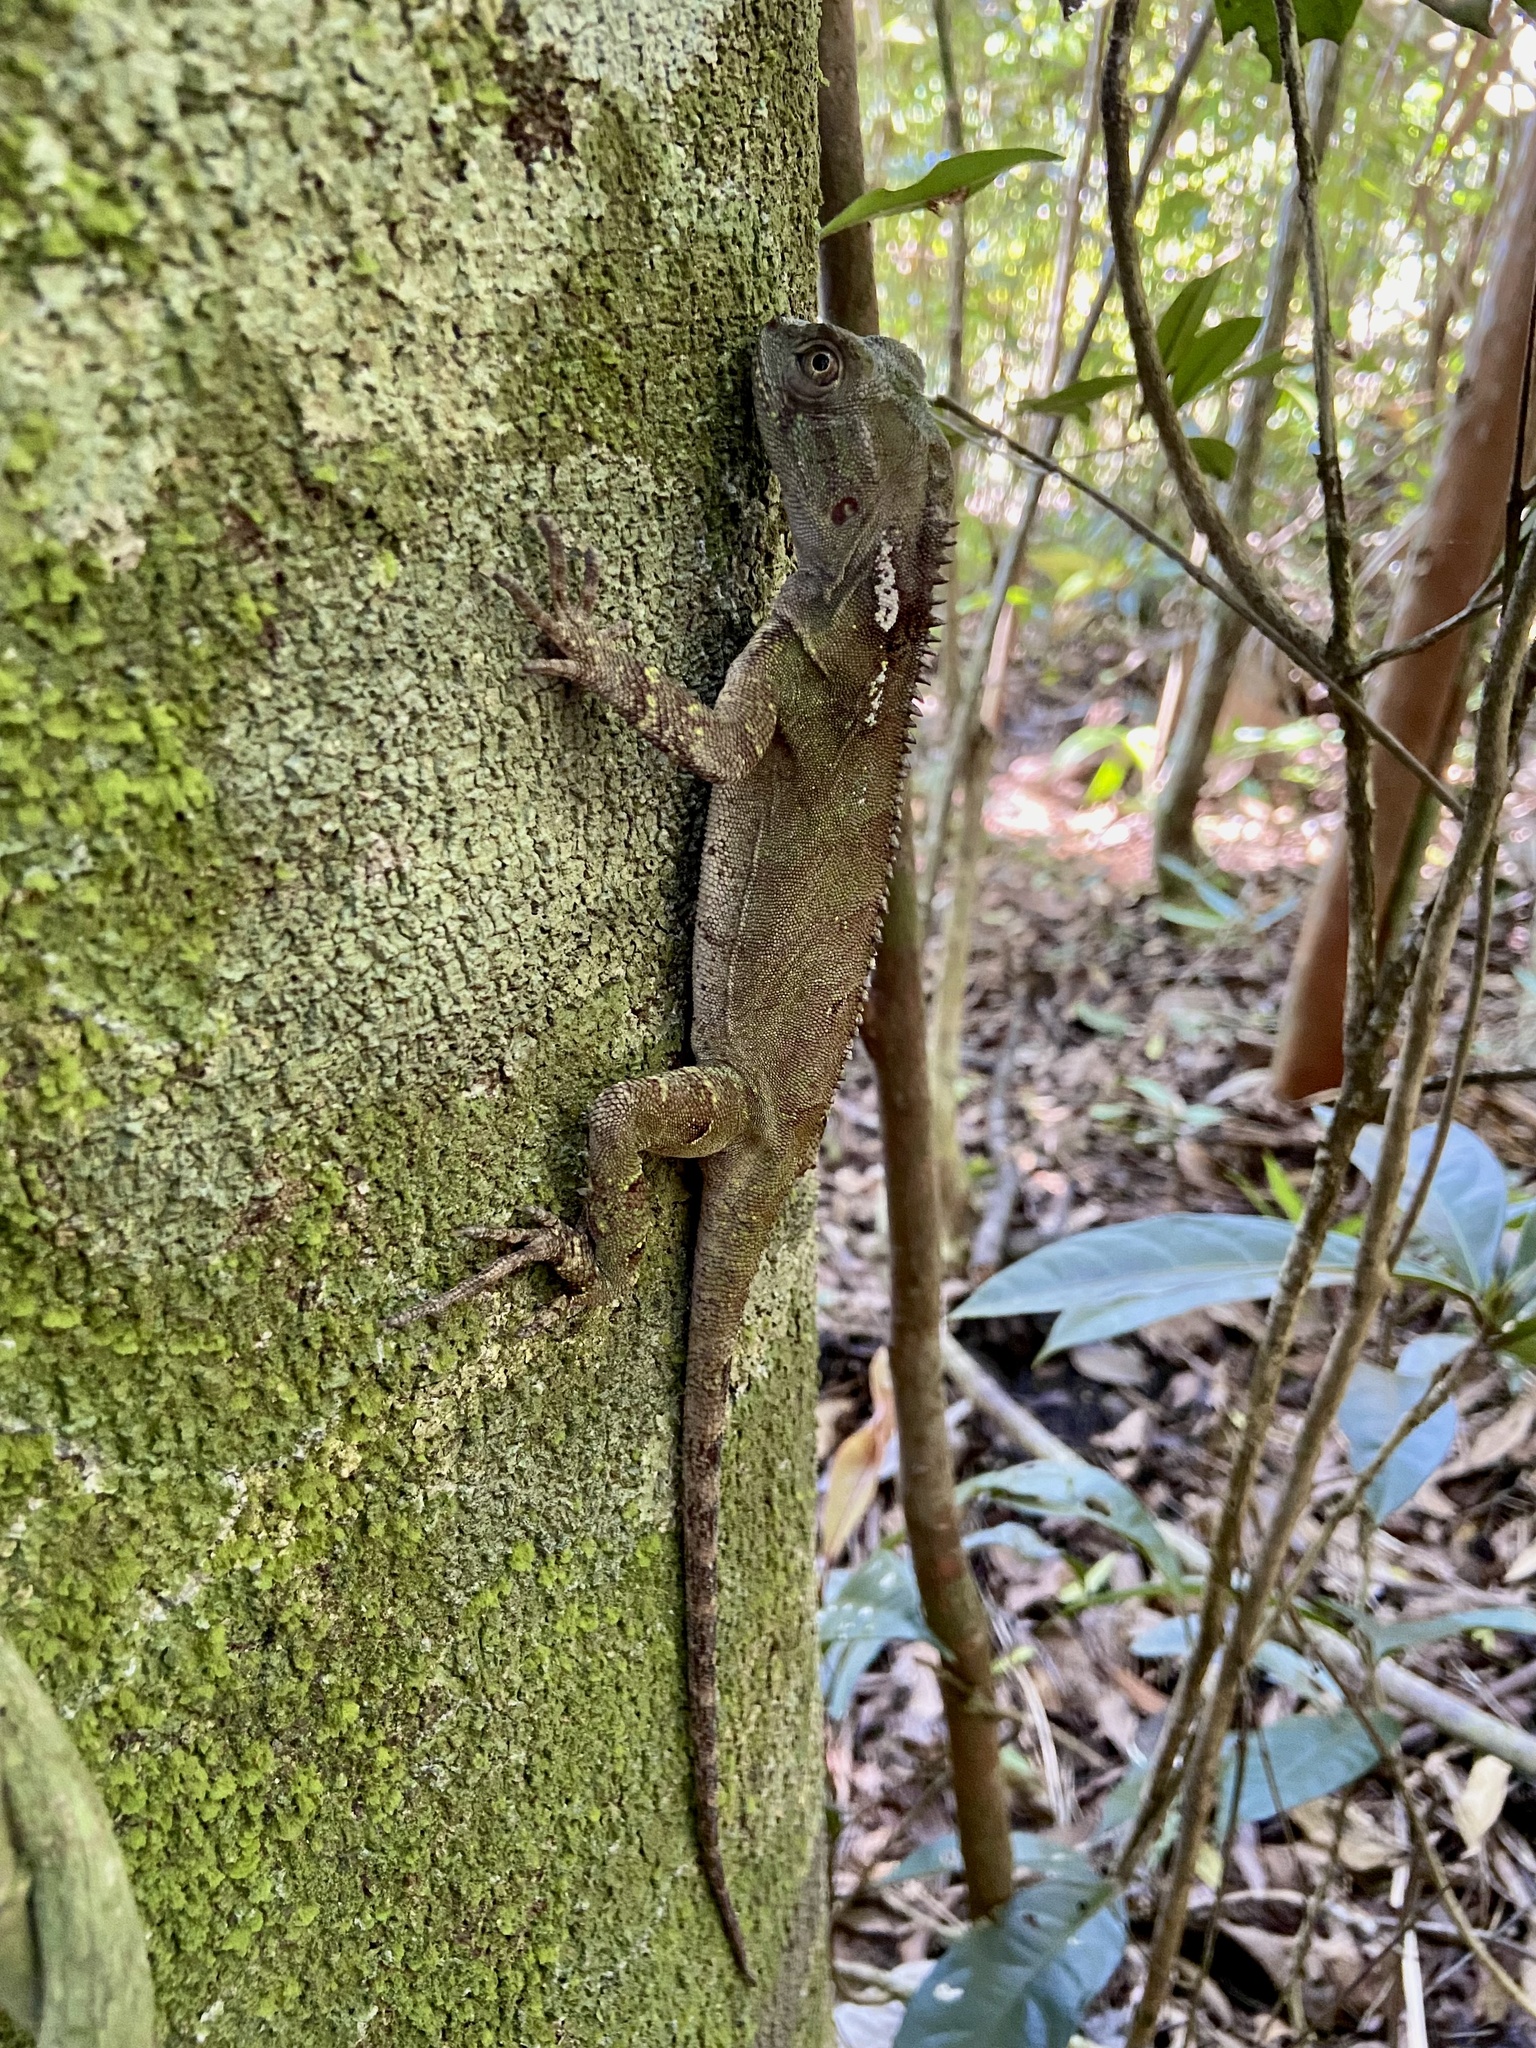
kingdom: Animalia
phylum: Chordata
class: Squamata
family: Leiosauridae
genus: Enyalius
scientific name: Enyalius brasiliensis
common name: Brazilian fathead anole
